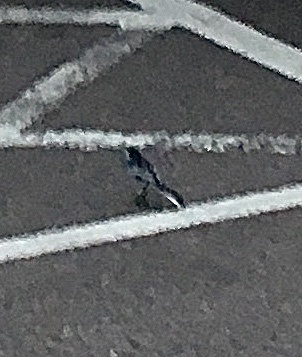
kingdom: Animalia
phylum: Chordata
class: Aves
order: Passeriformes
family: Motacillidae
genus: Motacilla
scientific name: Motacilla alba
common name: White wagtail
